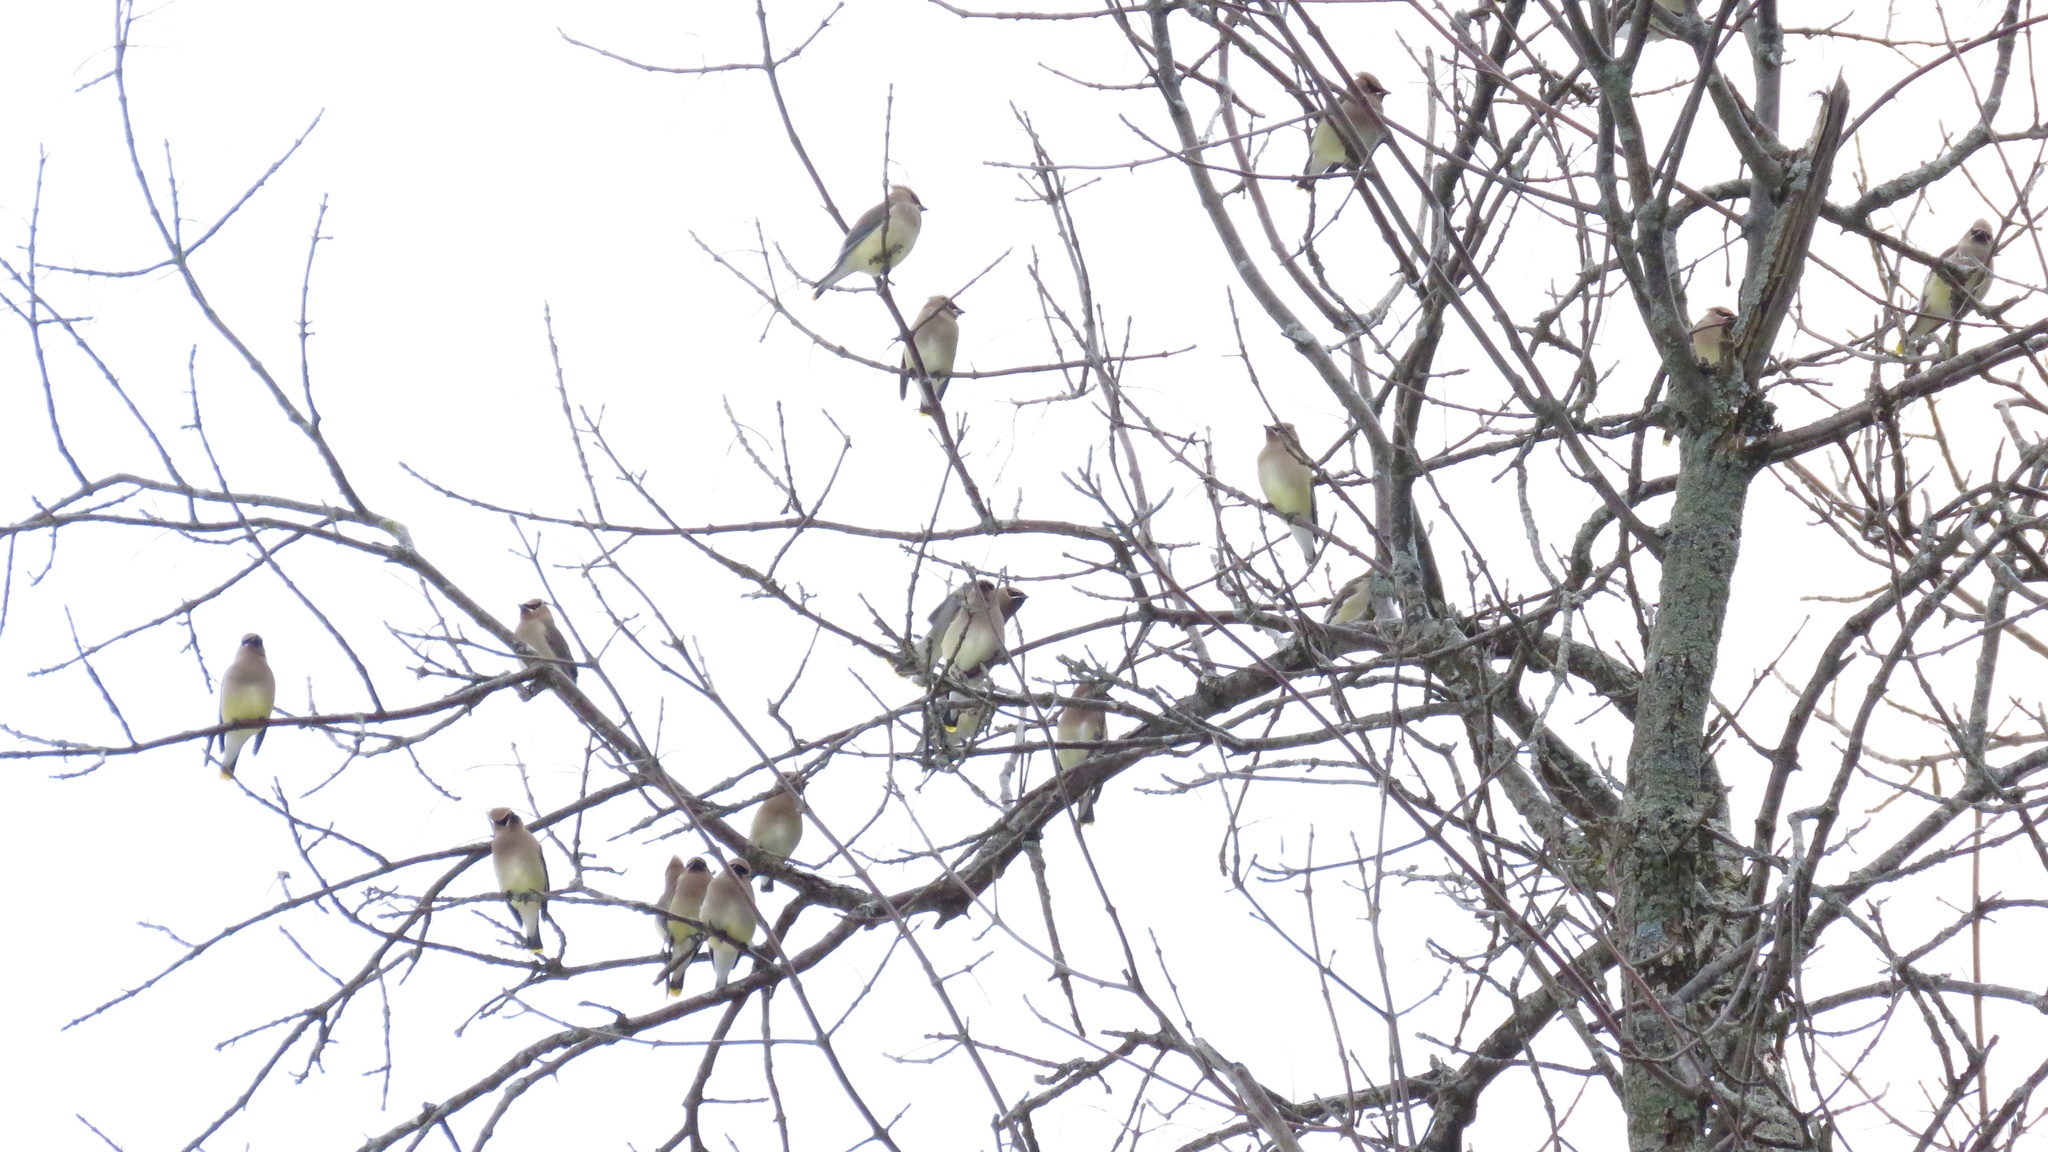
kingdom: Animalia
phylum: Chordata
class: Aves
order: Passeriformes
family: Bombycillidae
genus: Bombycilla
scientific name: Bombycilla cedrorum
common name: Cedar waxwing
